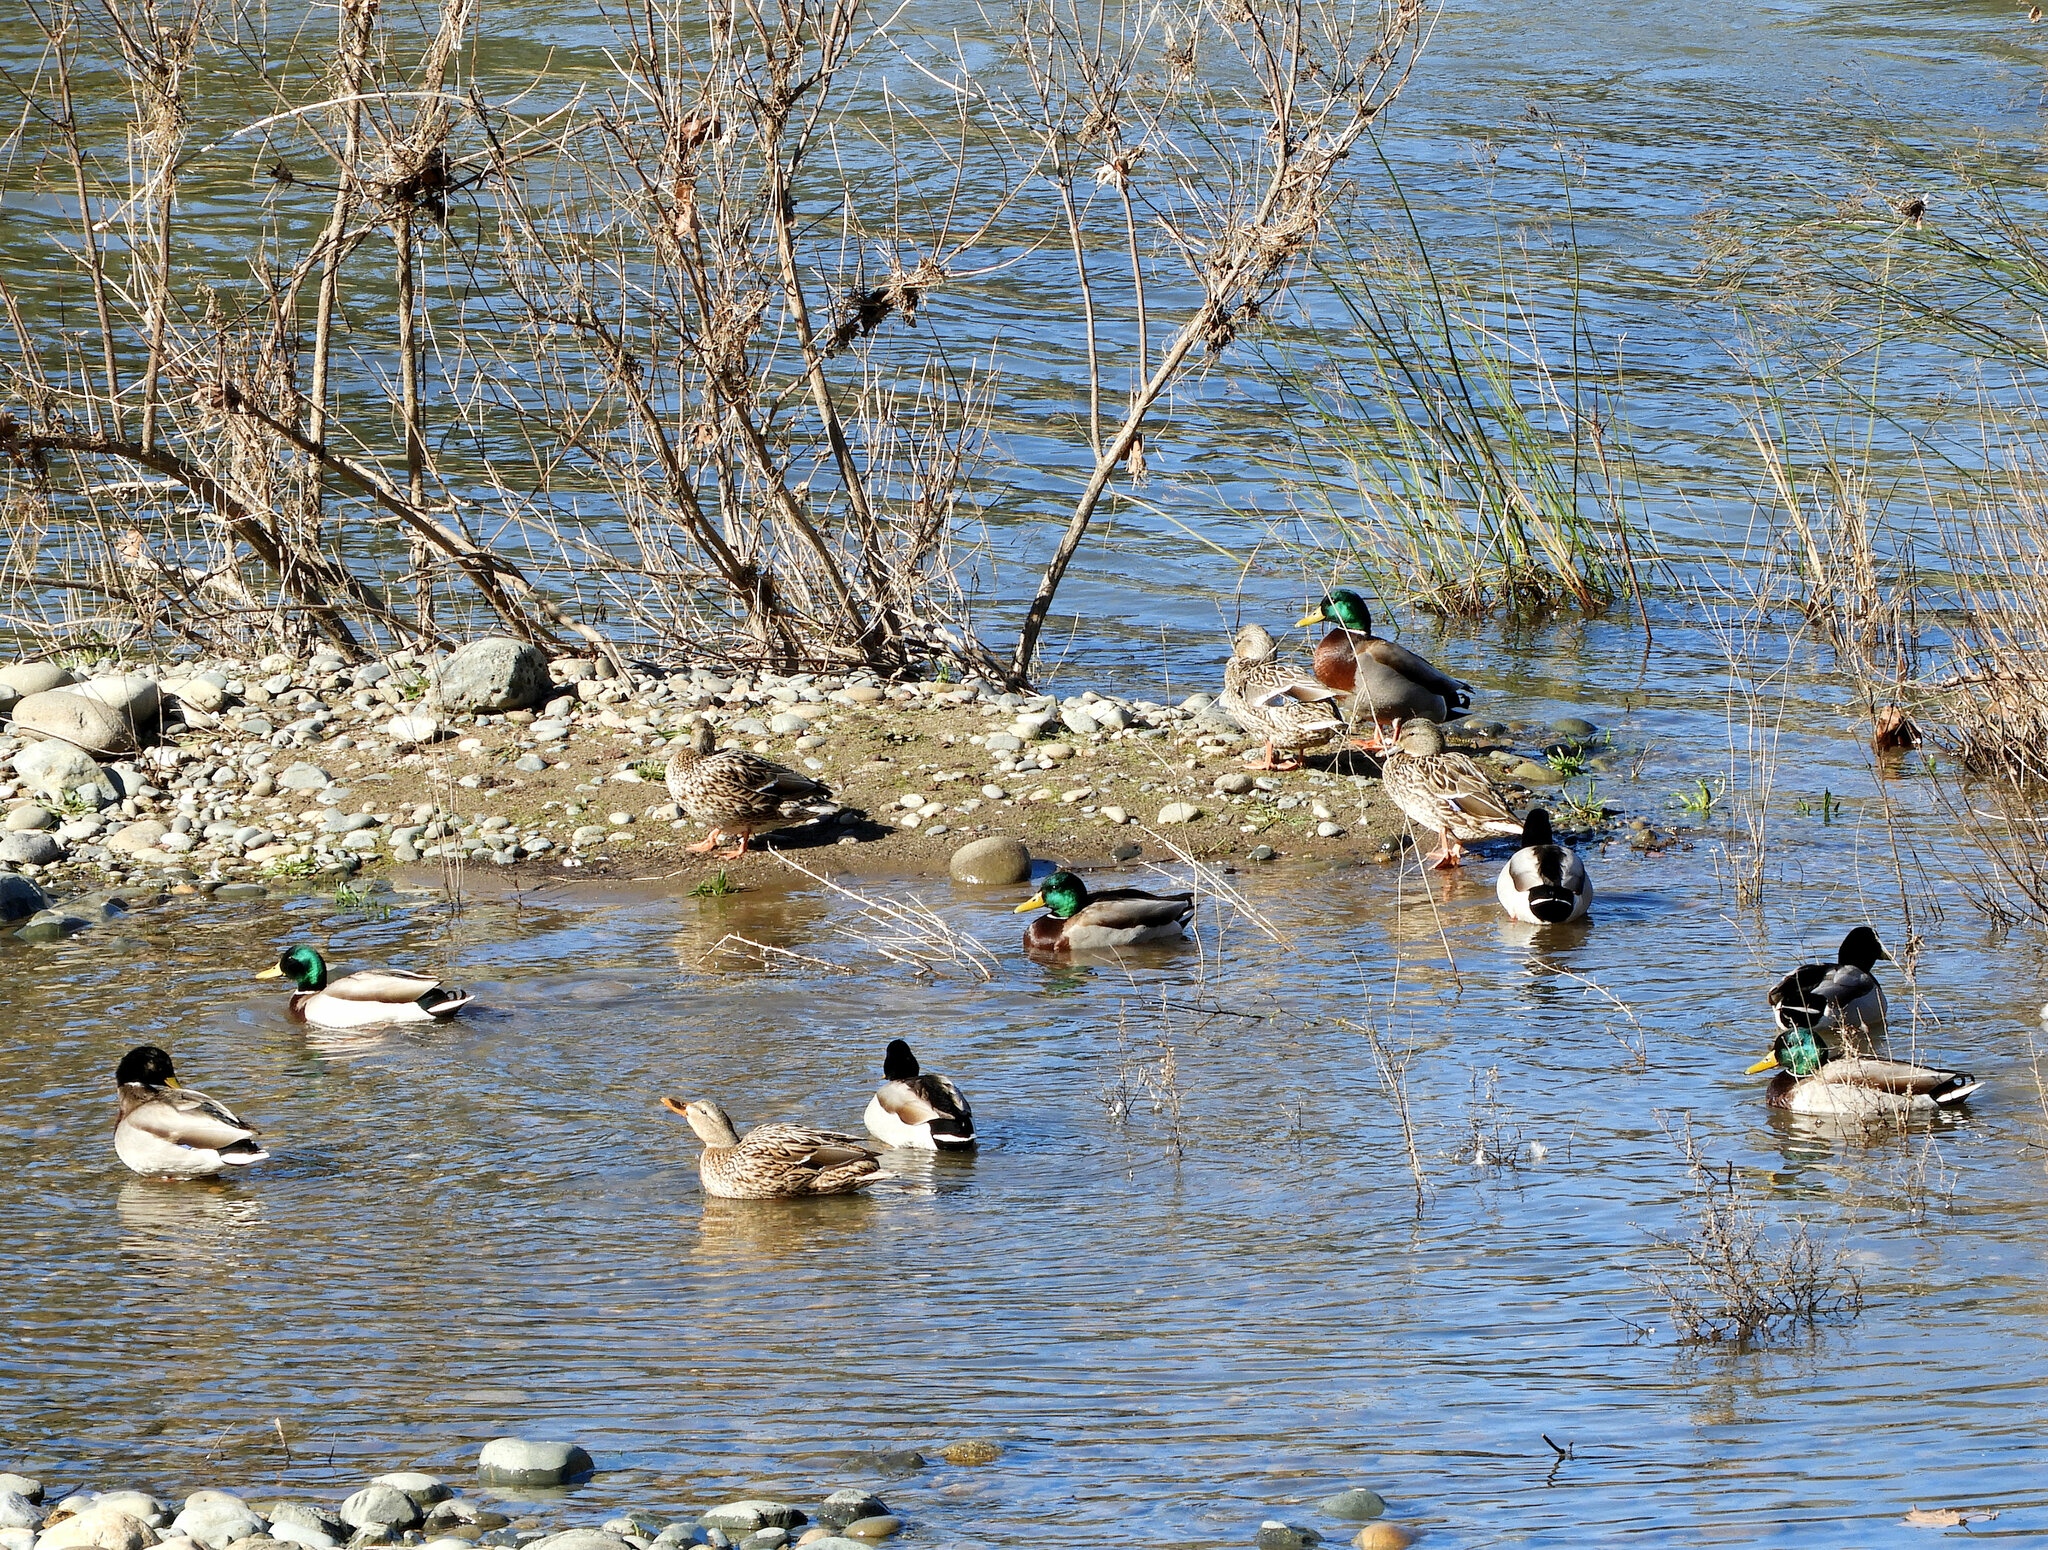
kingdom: Animalia
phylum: Chordata
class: Aves
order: Anseriformes
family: Anatidae
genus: Anas
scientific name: Anas platyrhynchos
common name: Mallard
